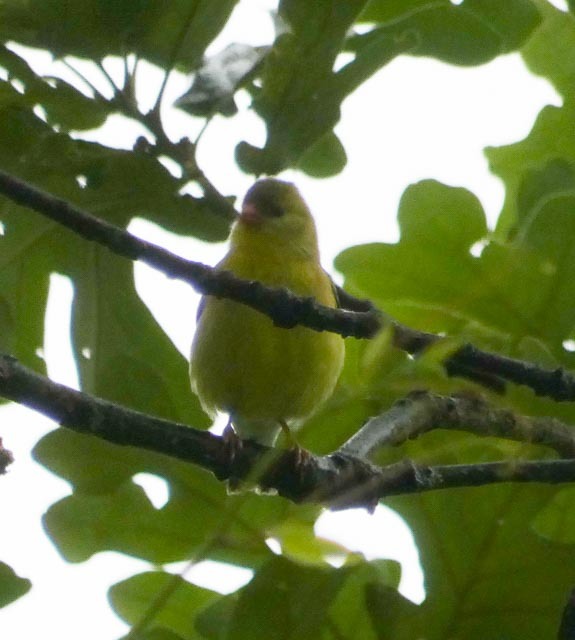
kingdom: Animalia
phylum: Chordata
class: Aves
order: Passeriformes
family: Fringillidae
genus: Spinus
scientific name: Spinus tristis
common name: American goldfinch
